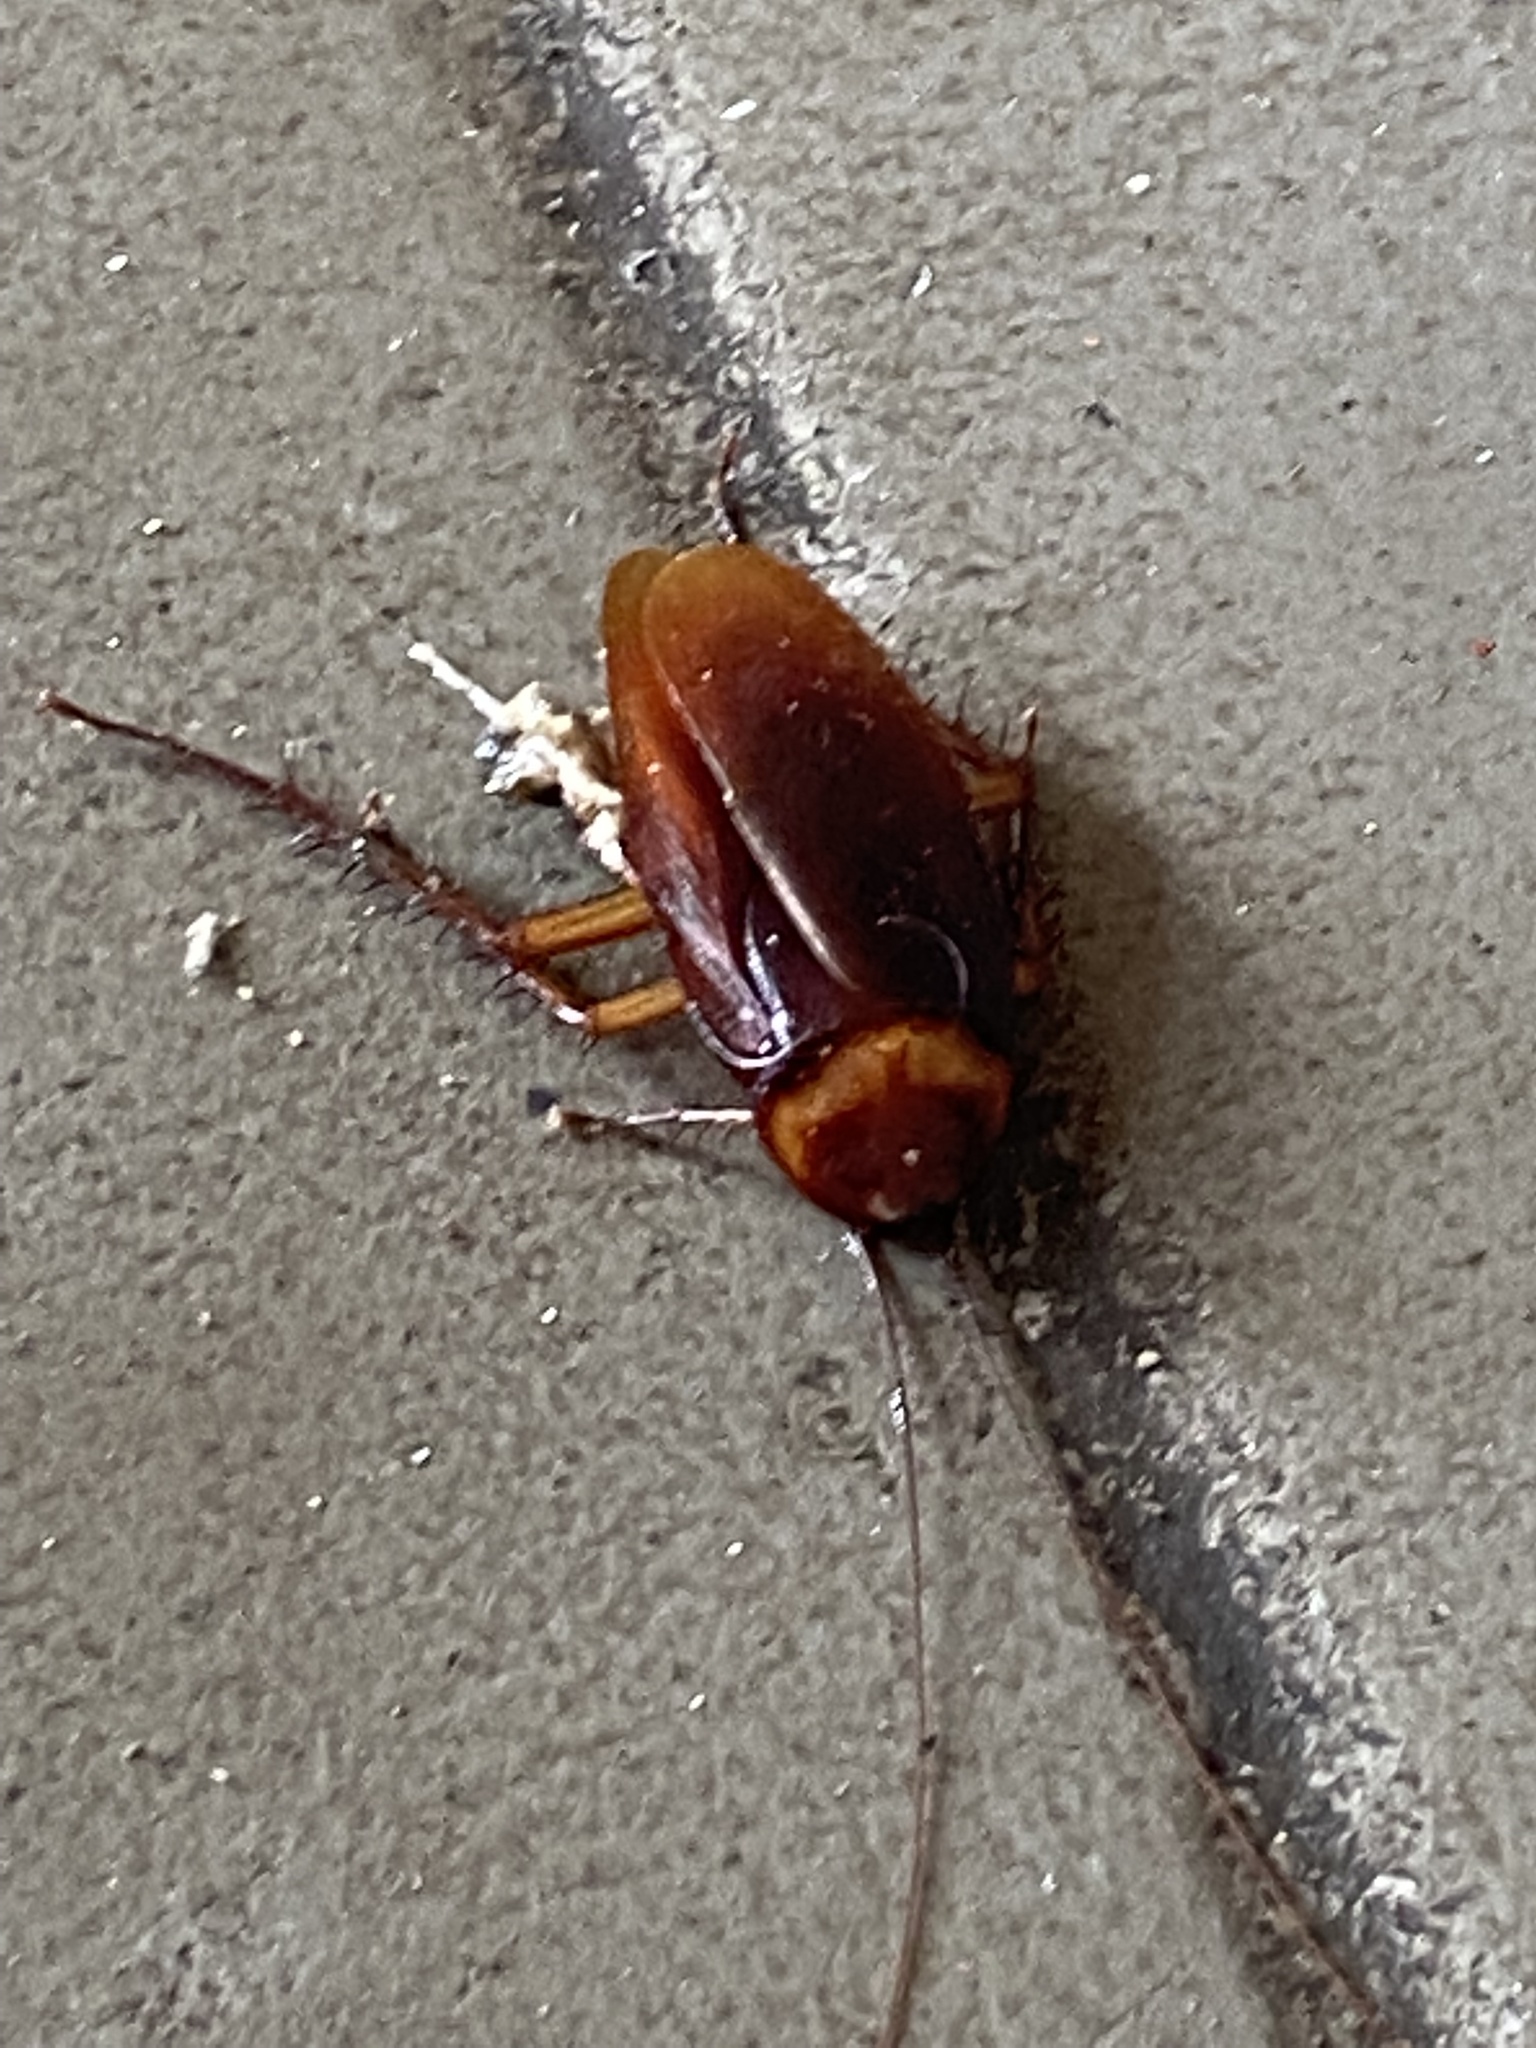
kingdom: Animalia
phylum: Arthropoda
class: Insecta
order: Blattodea
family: Blattidae
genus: Periplaneta
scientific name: Periplaneta americana
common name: American cockroach
